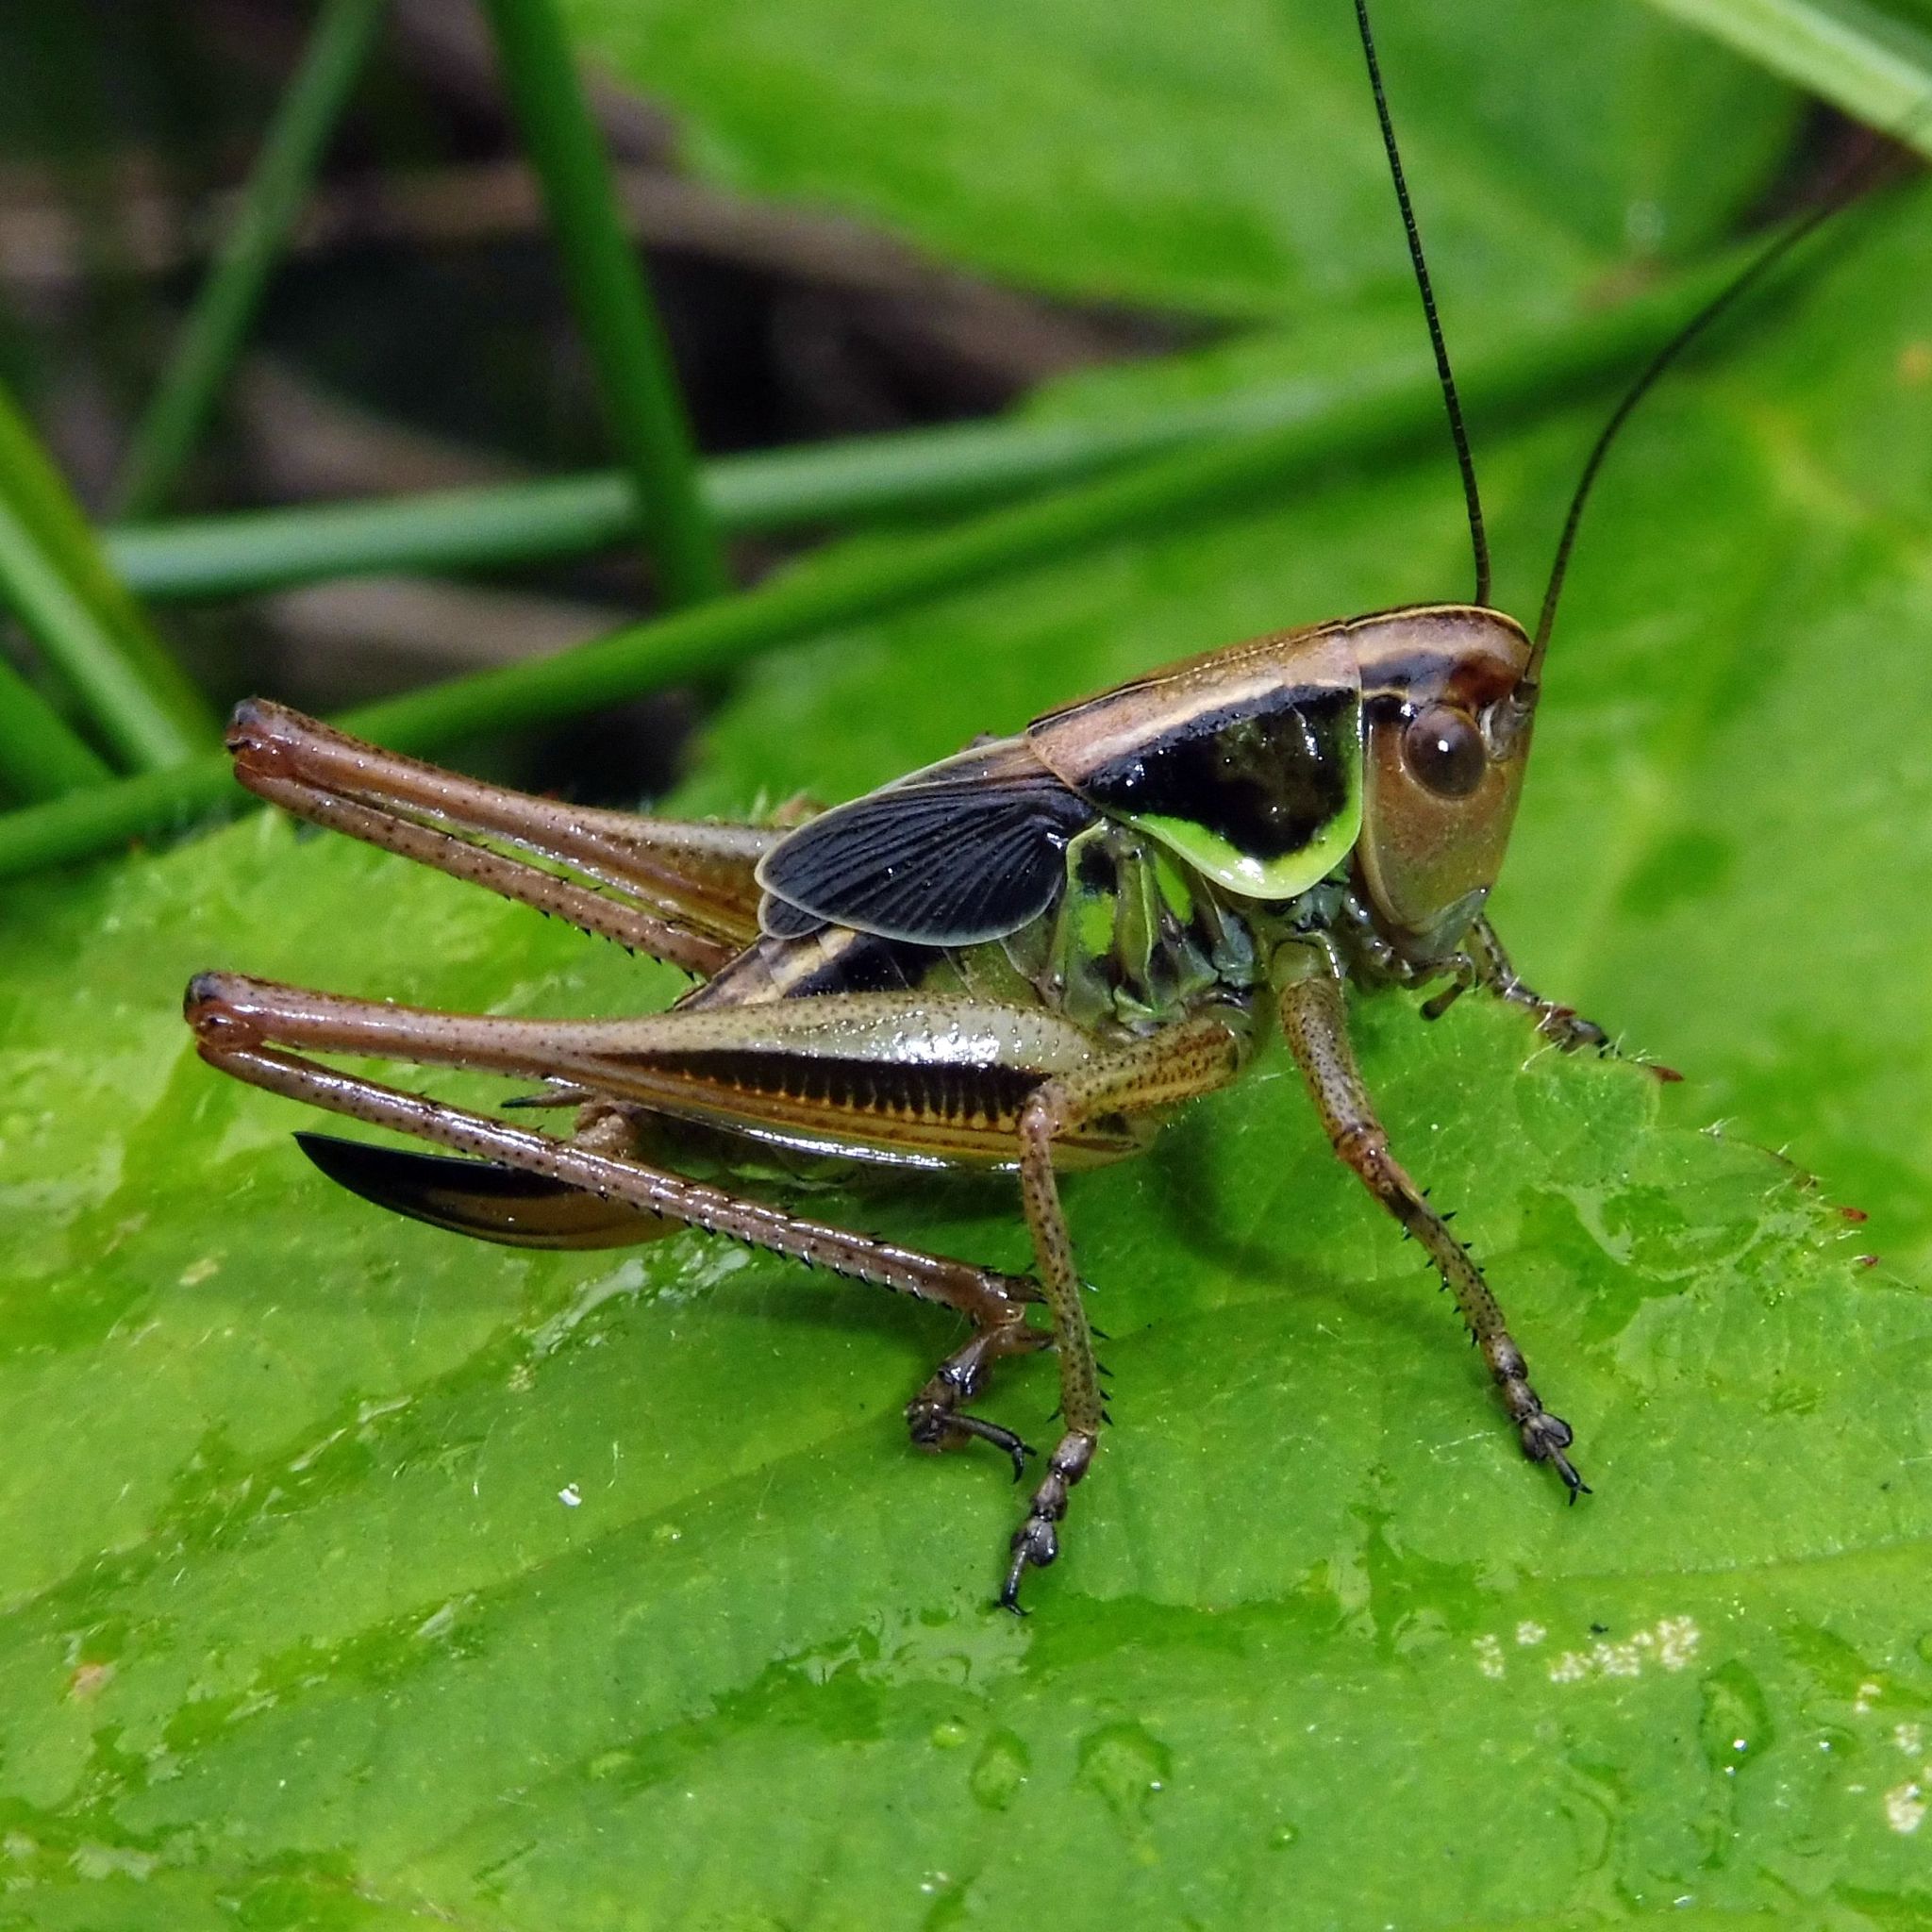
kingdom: Animalia
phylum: Arthropoda
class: Insecta
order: Orthoptera
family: Tettigoniidae
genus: Roeseliana
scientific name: Roeseliana roeselii
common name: Roesel's bush cricket
